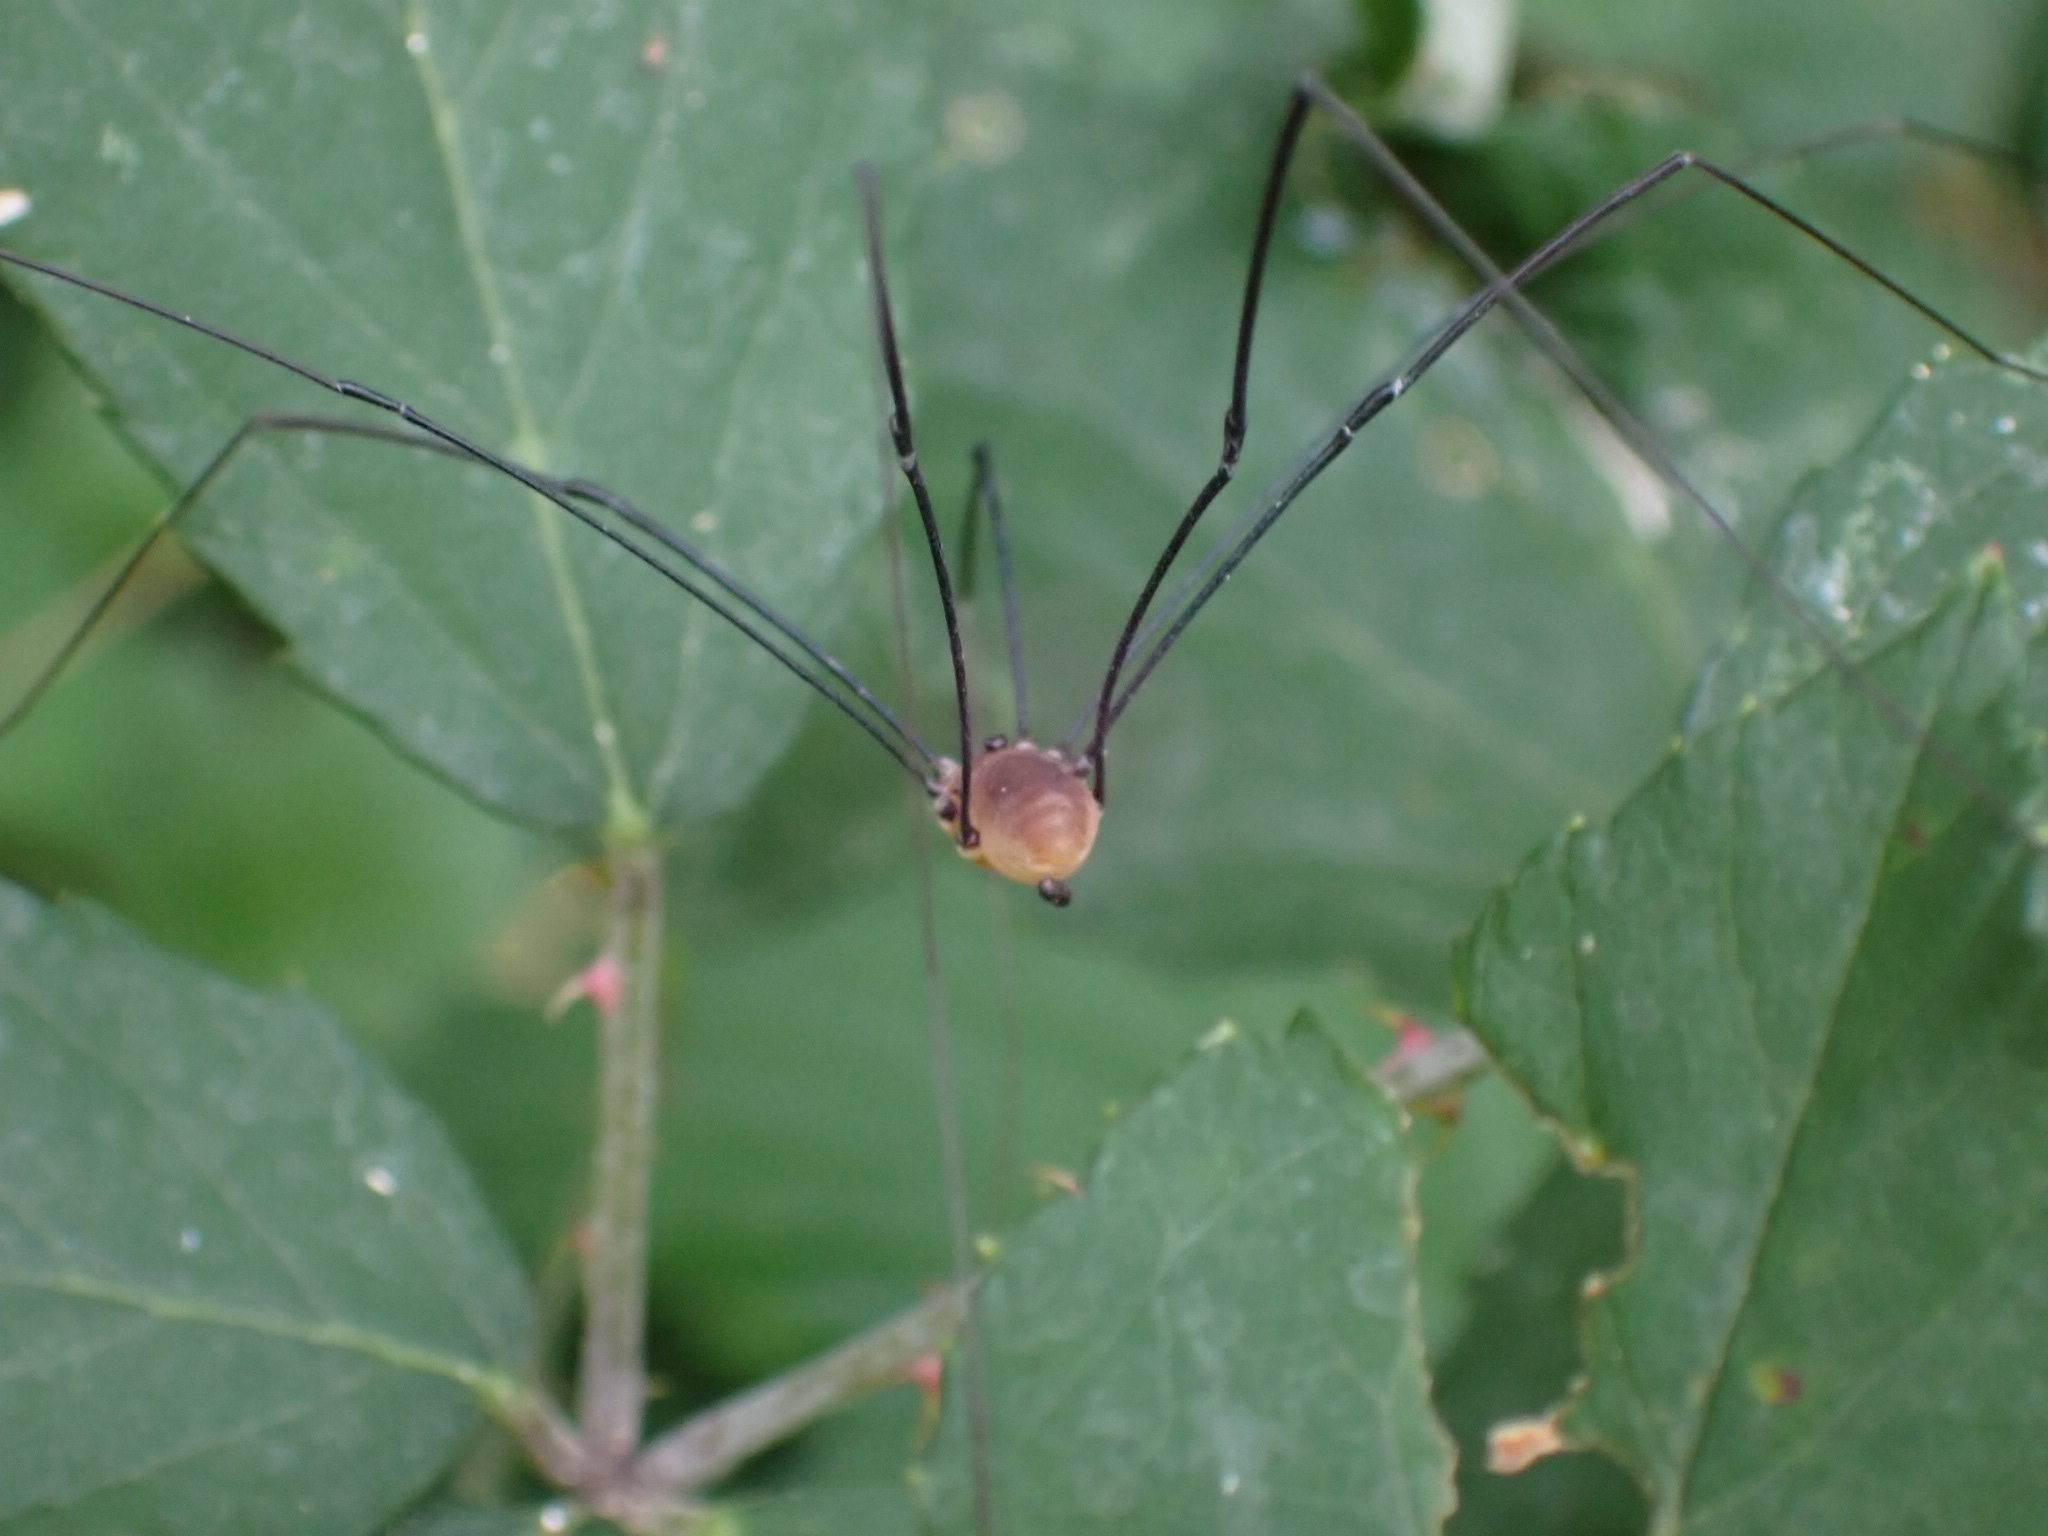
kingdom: Animalia
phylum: Arthropoda
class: Arachnida
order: Opiliones
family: Sclerosomatidae
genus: Leiobunum
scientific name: Leiobunum rotundum
